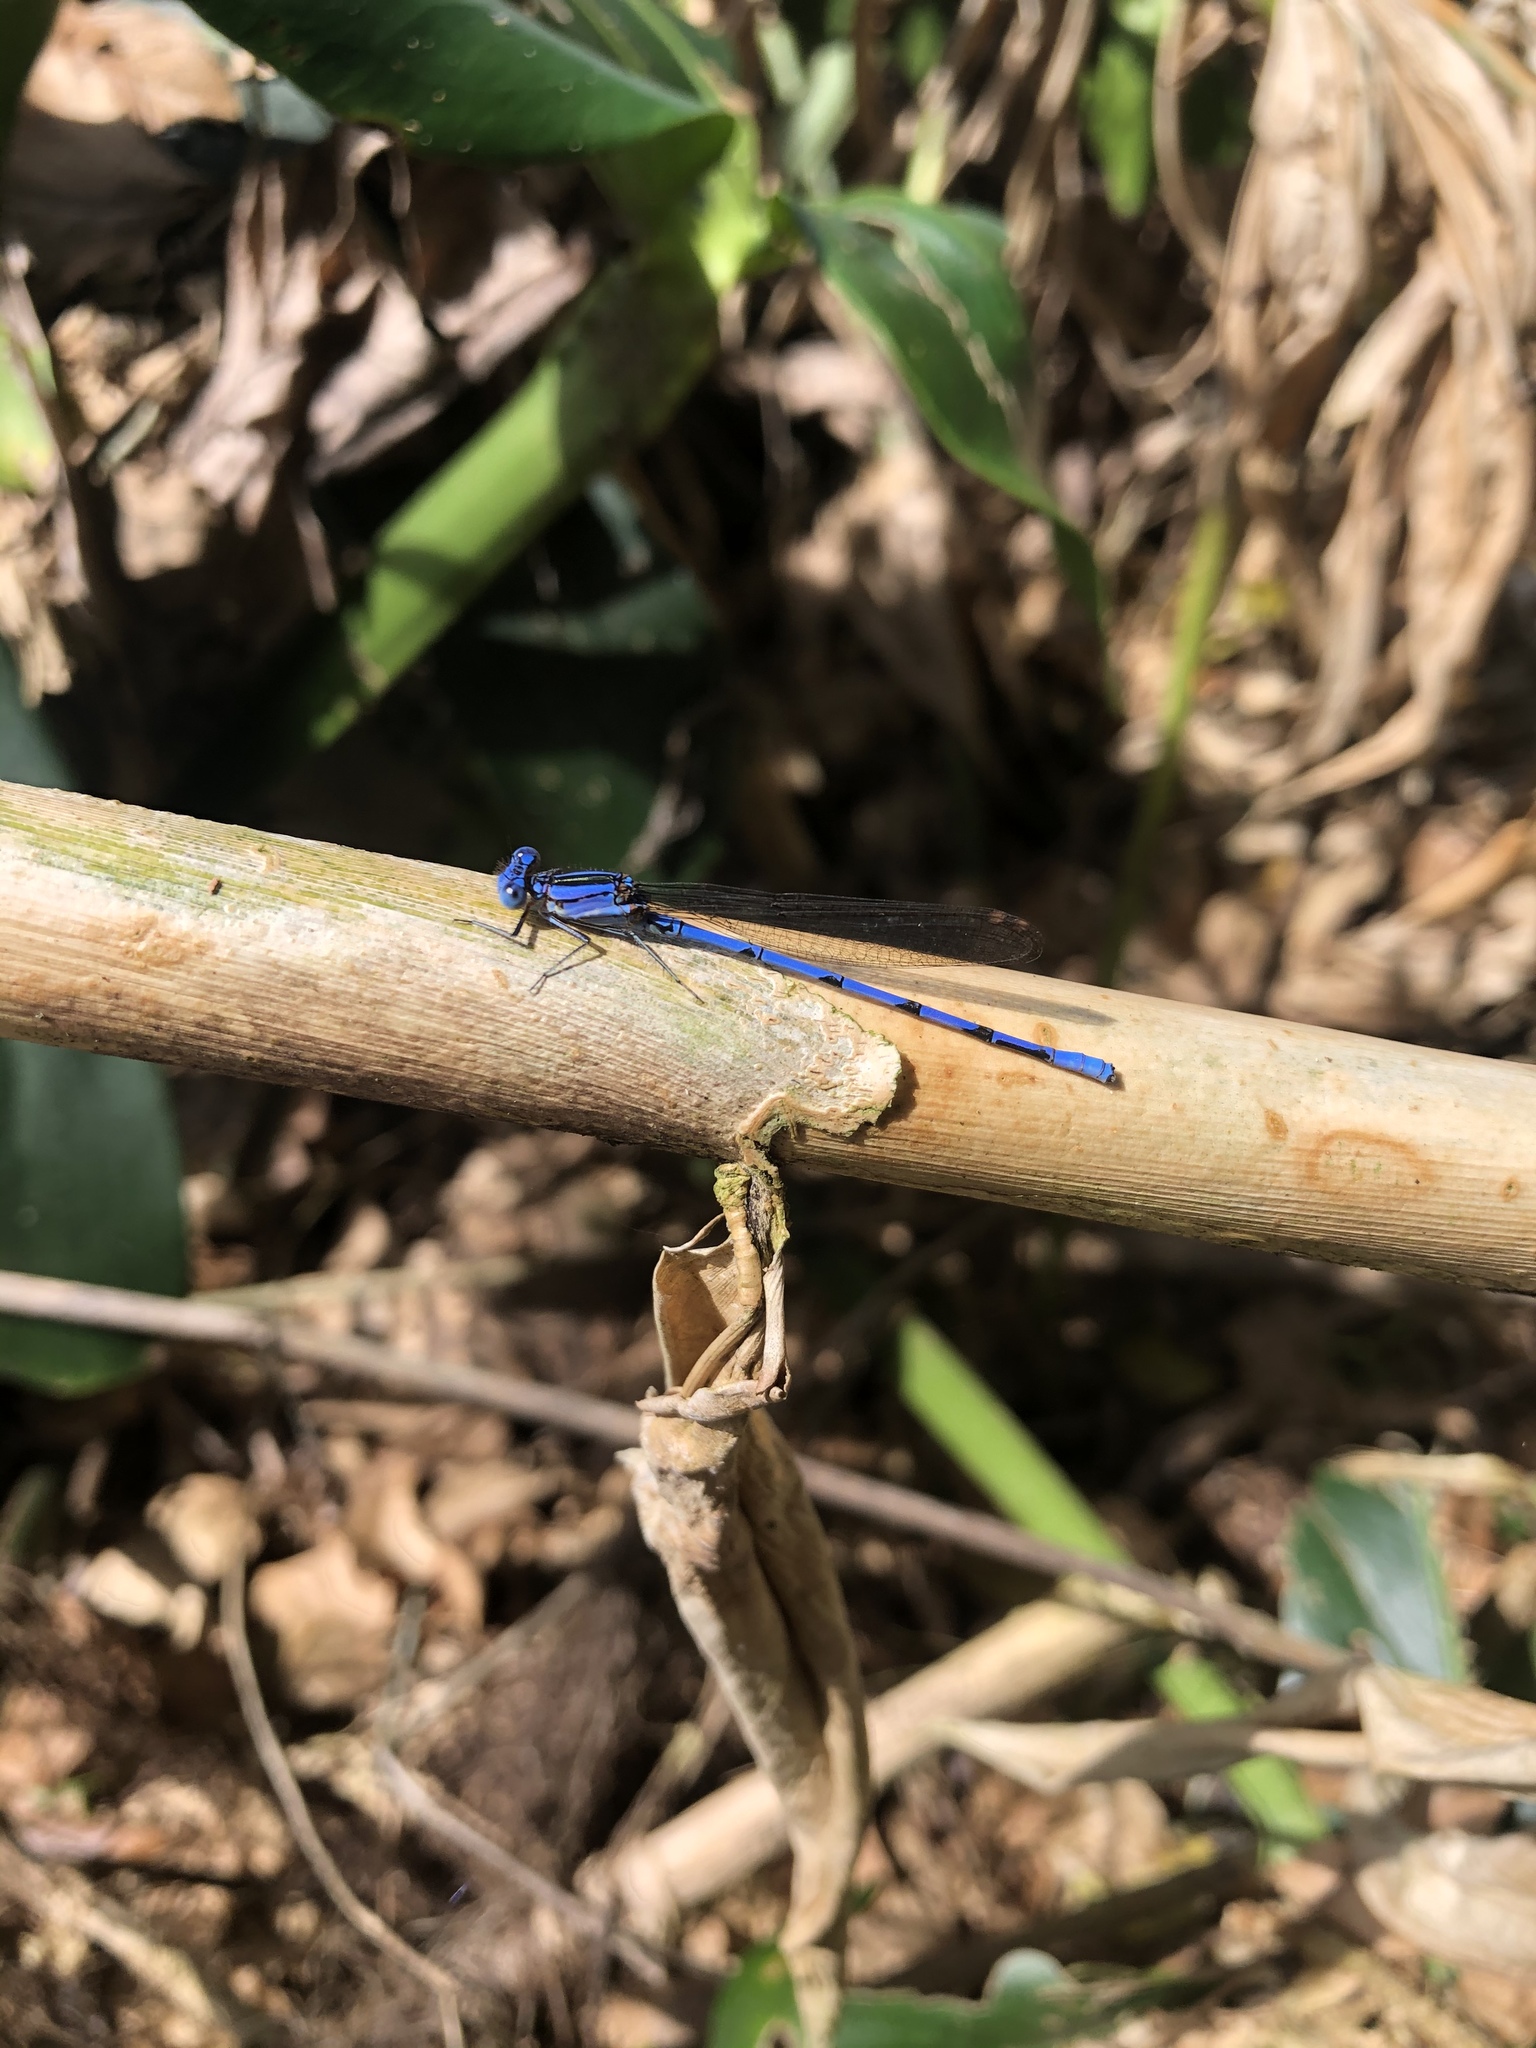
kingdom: Animalia
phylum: Arthropoda
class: Insecta
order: Odonata
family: Coenagrionidae
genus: Argia
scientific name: Argia anceps
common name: Cerulean dancer
